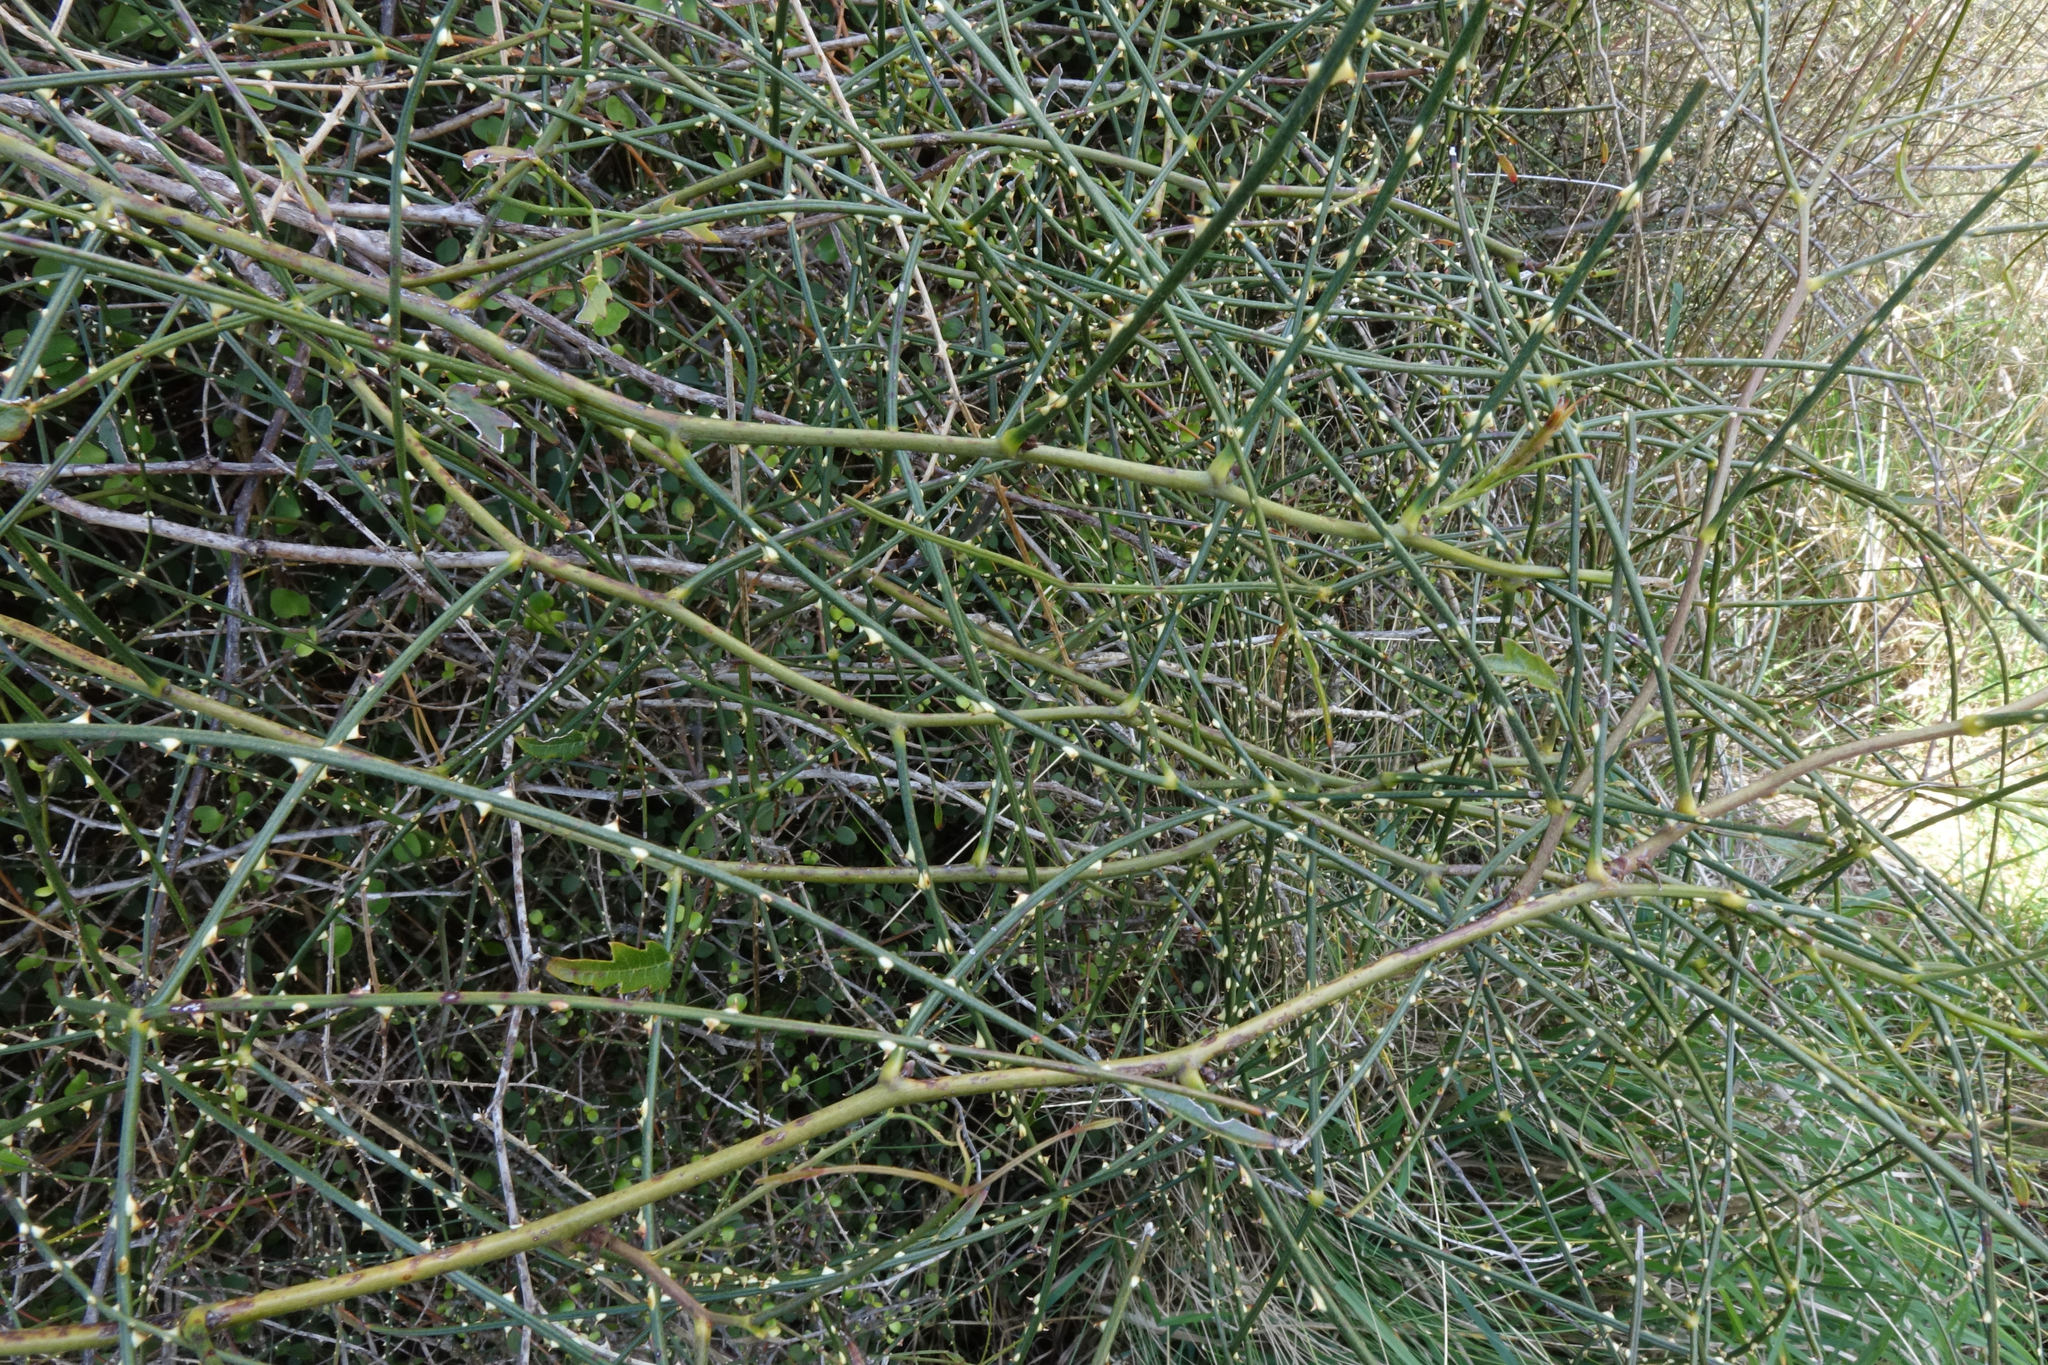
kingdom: Plantae
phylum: Tracheophyta
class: Magnoliopsida
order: Rosales
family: Rosaceae
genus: Rubus
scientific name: Rubus squarrosus
